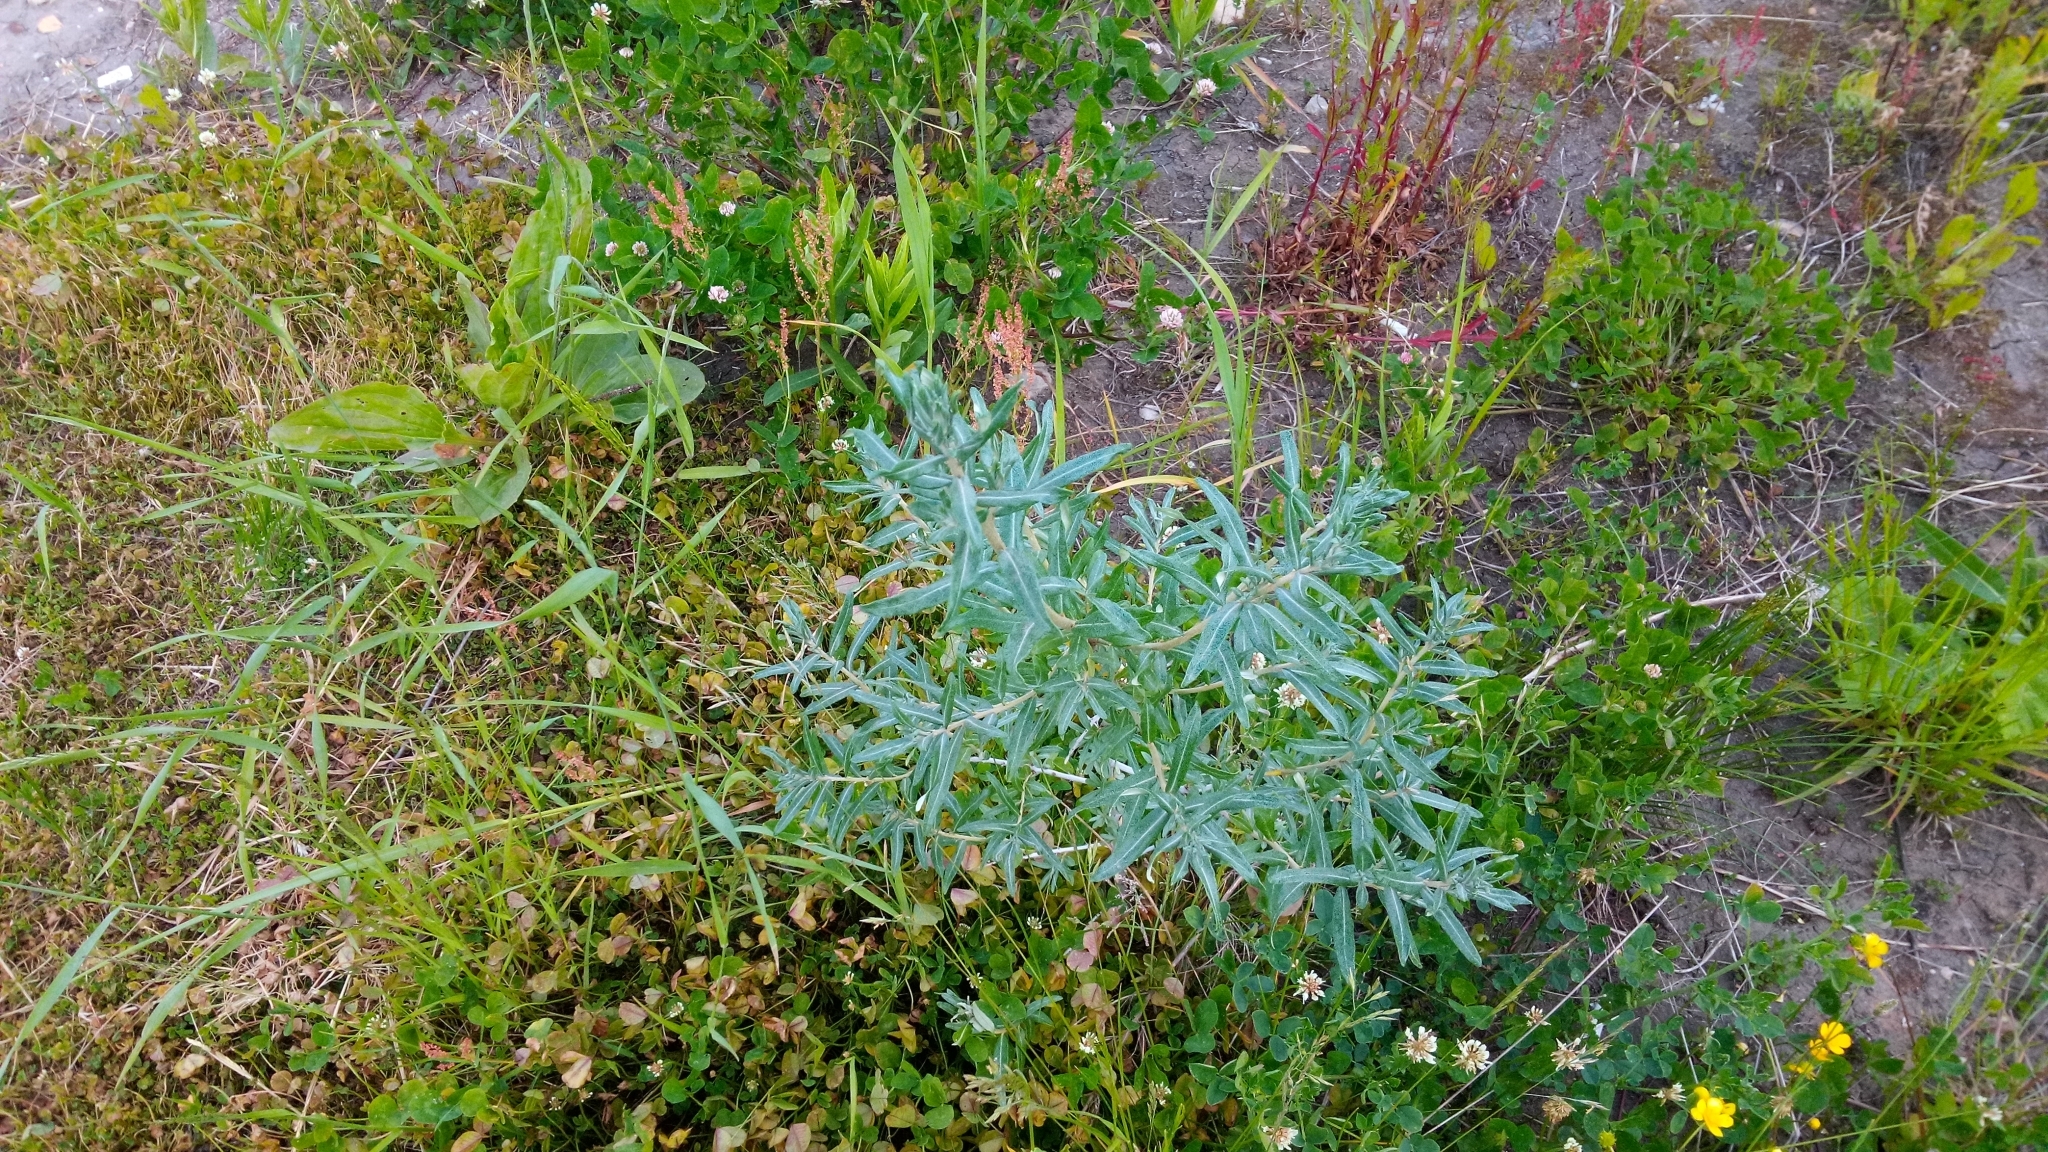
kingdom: Plantae
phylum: Tracheophyta
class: Magnoliopsida
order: Rosales
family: Elaeagnaceae
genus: Hippophae
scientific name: Hippophae rhamnoides
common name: Sea-buckthorn
